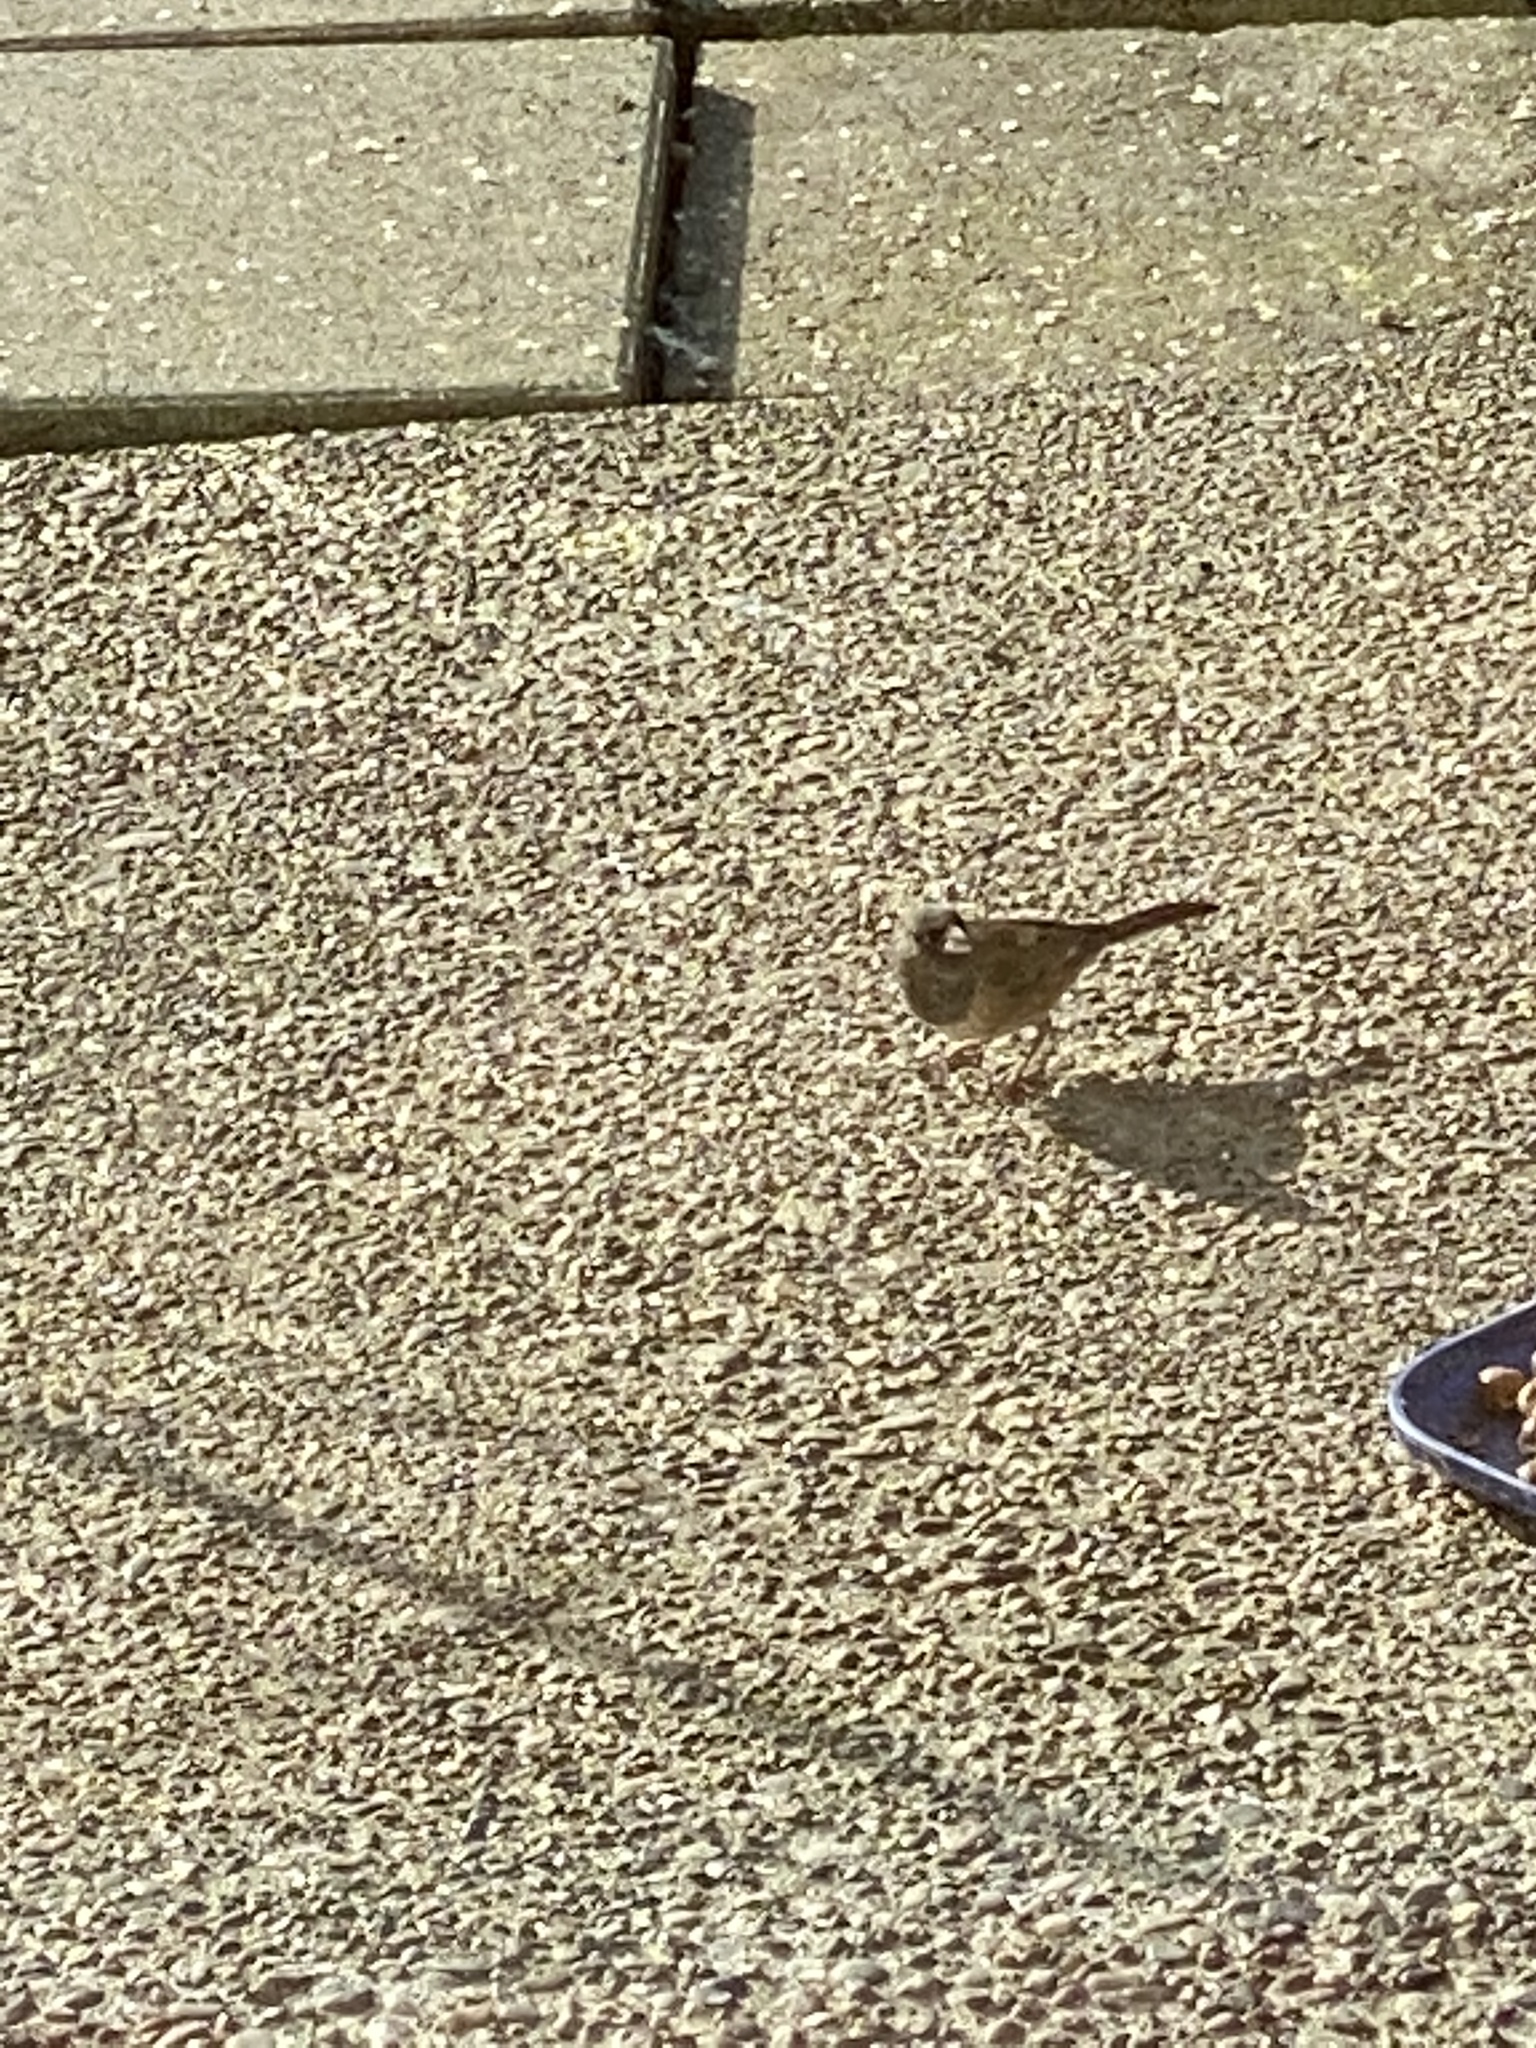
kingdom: Animalia
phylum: Chordata
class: Aves
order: Passeriformes
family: Passerellidae
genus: Junco
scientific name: Junco hyemalis
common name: Dark-eyed junco
